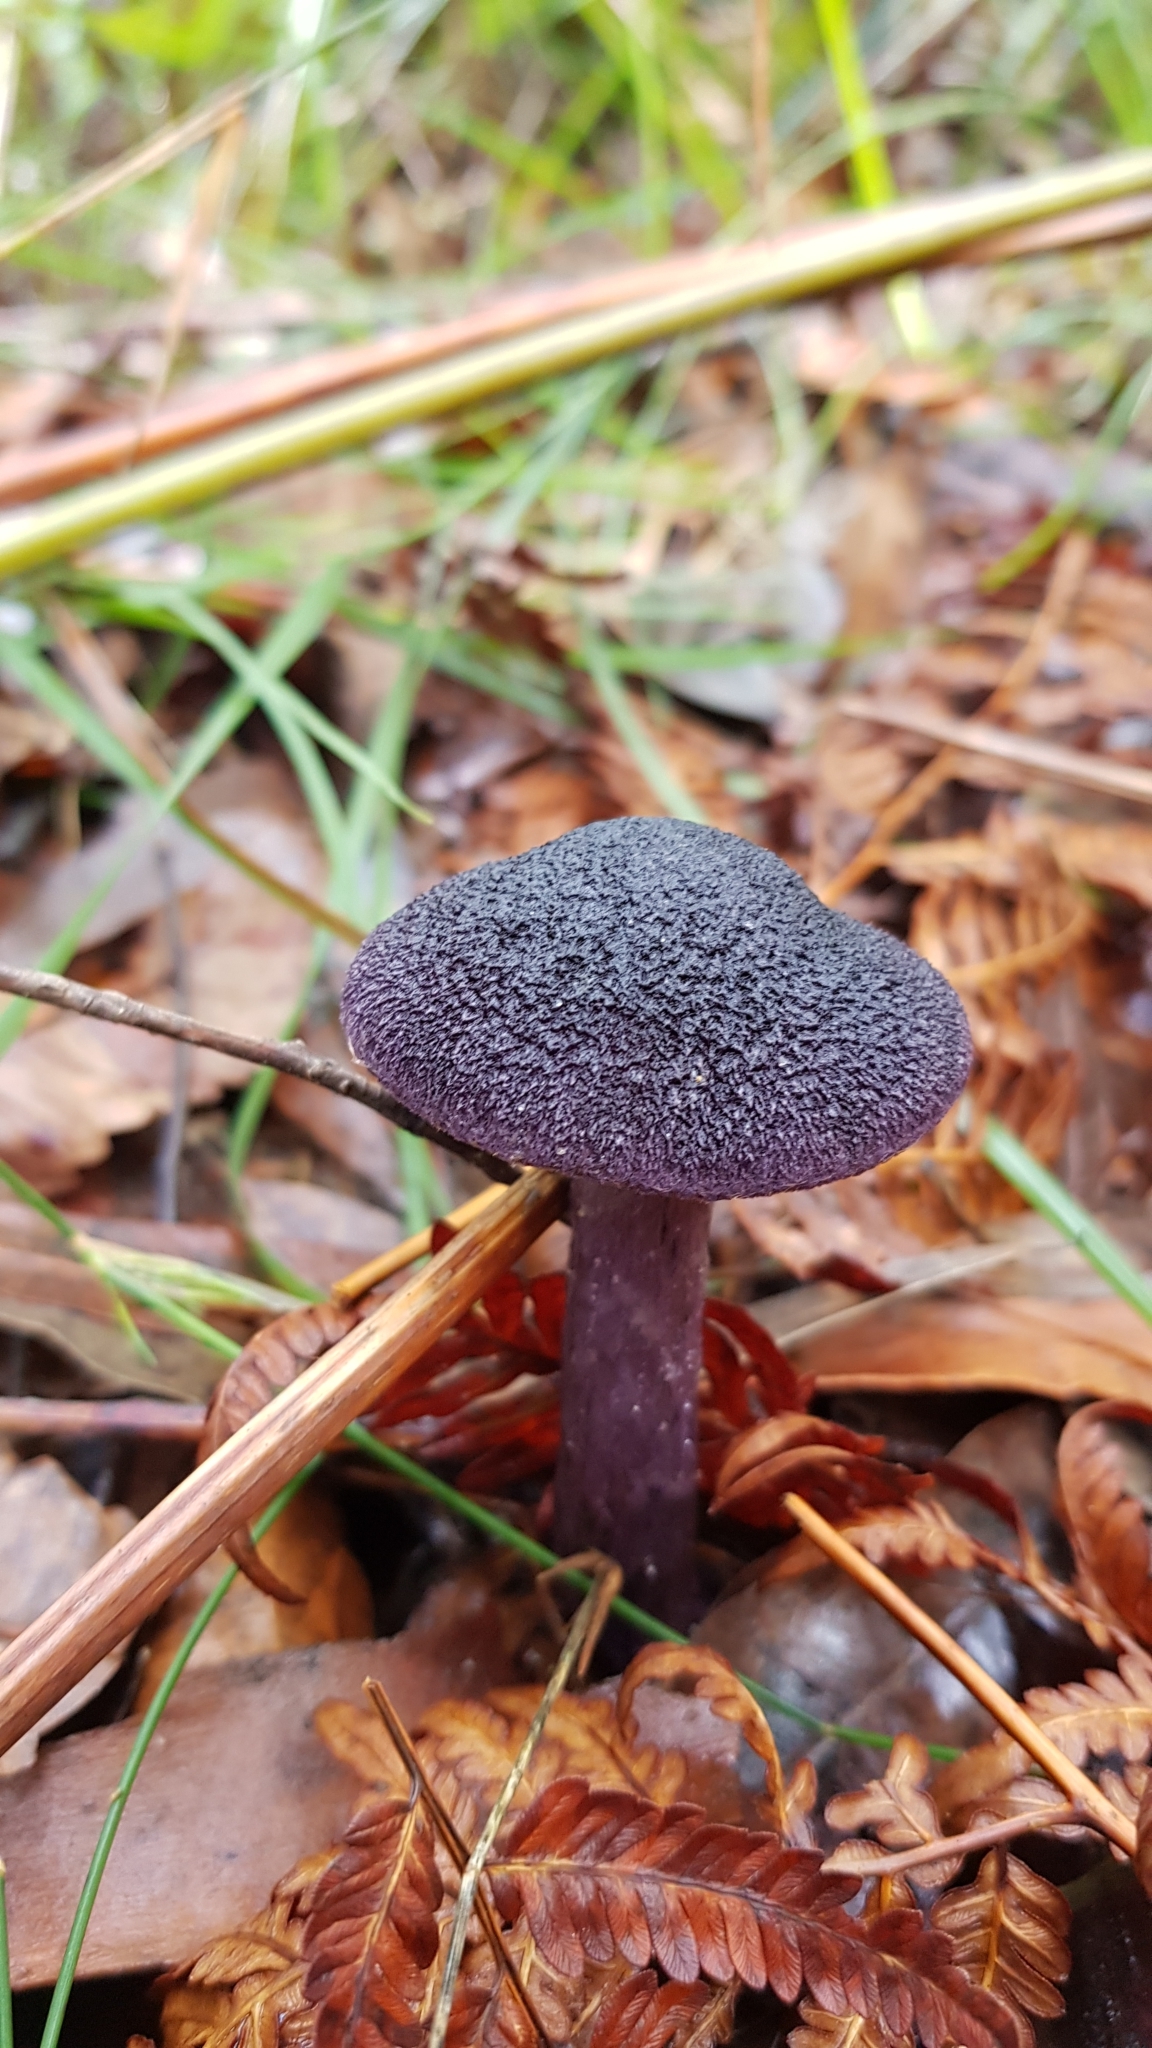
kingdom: Fungi
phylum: Basidiomycota
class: Agaricomycetes
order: Agaricales
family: Cortinariaceae
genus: Cortinarius
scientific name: Cortinarius kioloensis
